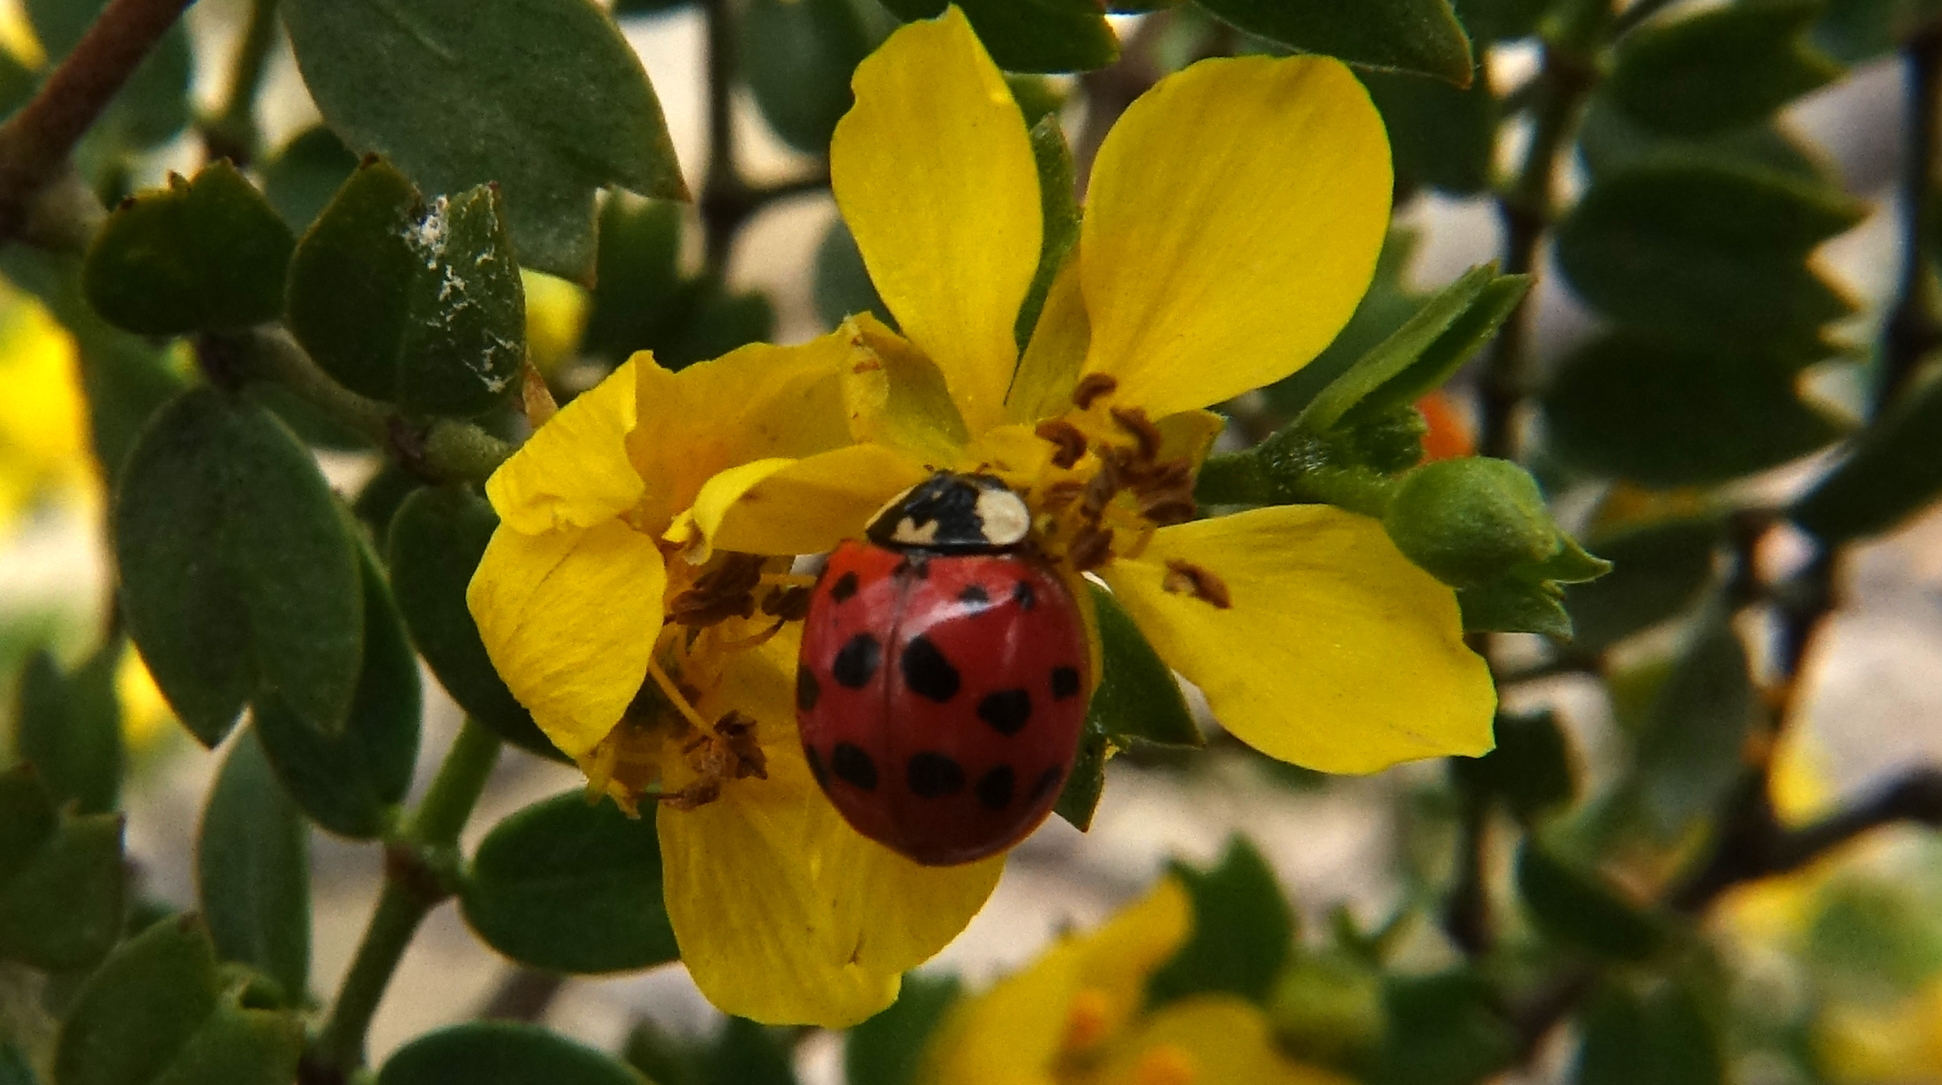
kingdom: Animalia
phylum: Arthropoda
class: Insecta
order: Coleoptera
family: Coccinellidae
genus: Harmonia
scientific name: Harmonia axyridis
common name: Harlequin ladybird
